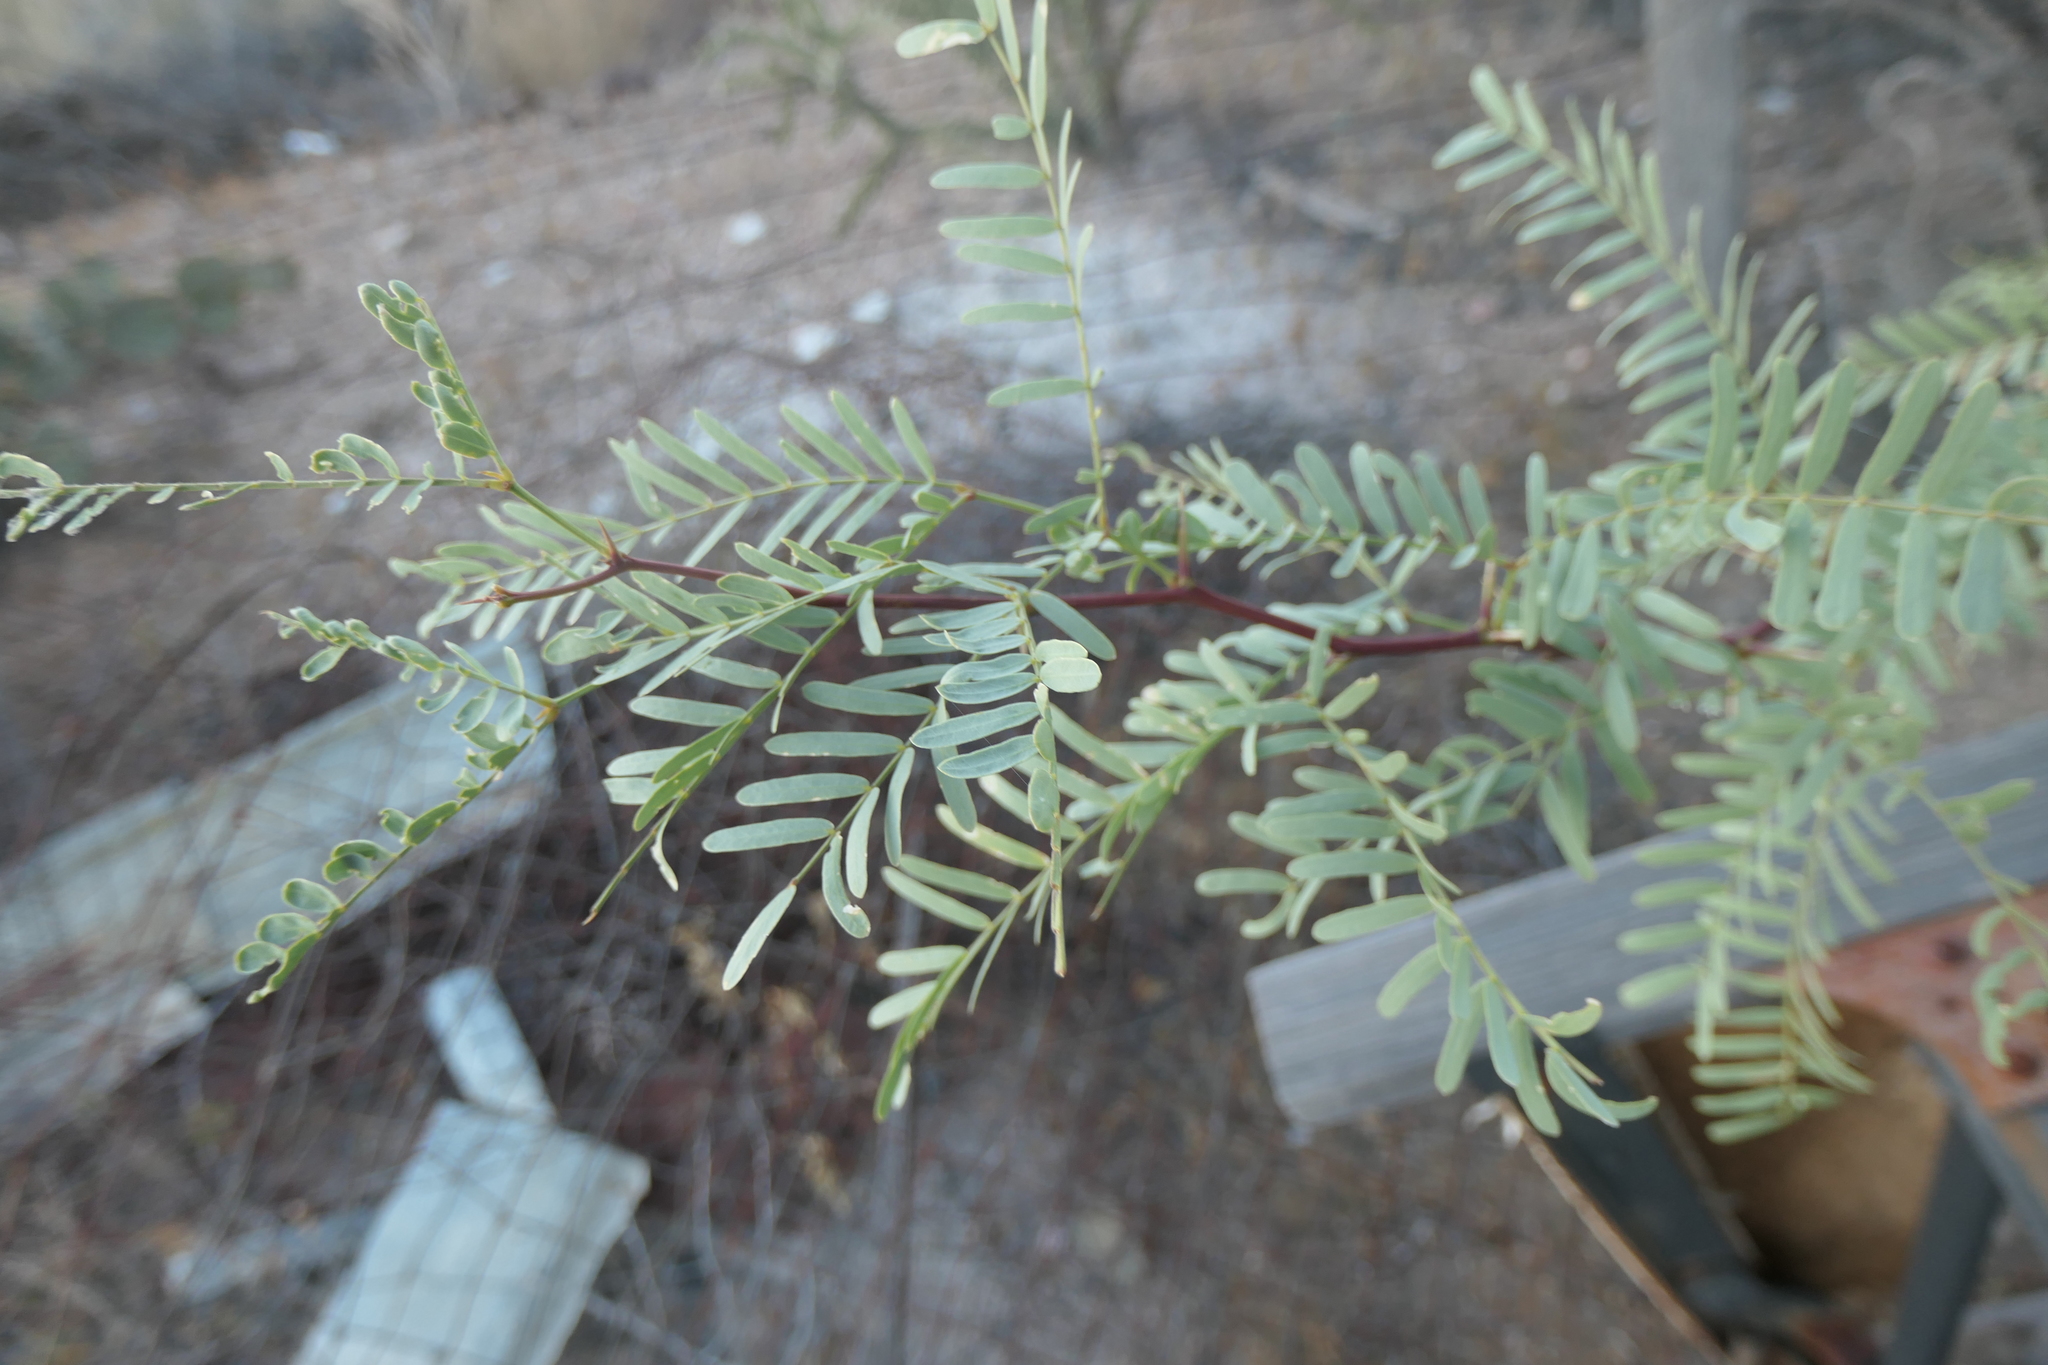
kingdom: Plantae
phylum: Tracheophyta
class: Magnoliopsida
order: Fabales
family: Fabaceae
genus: Prosopis
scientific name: Prosopis glandulosa
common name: Honey mesquite
